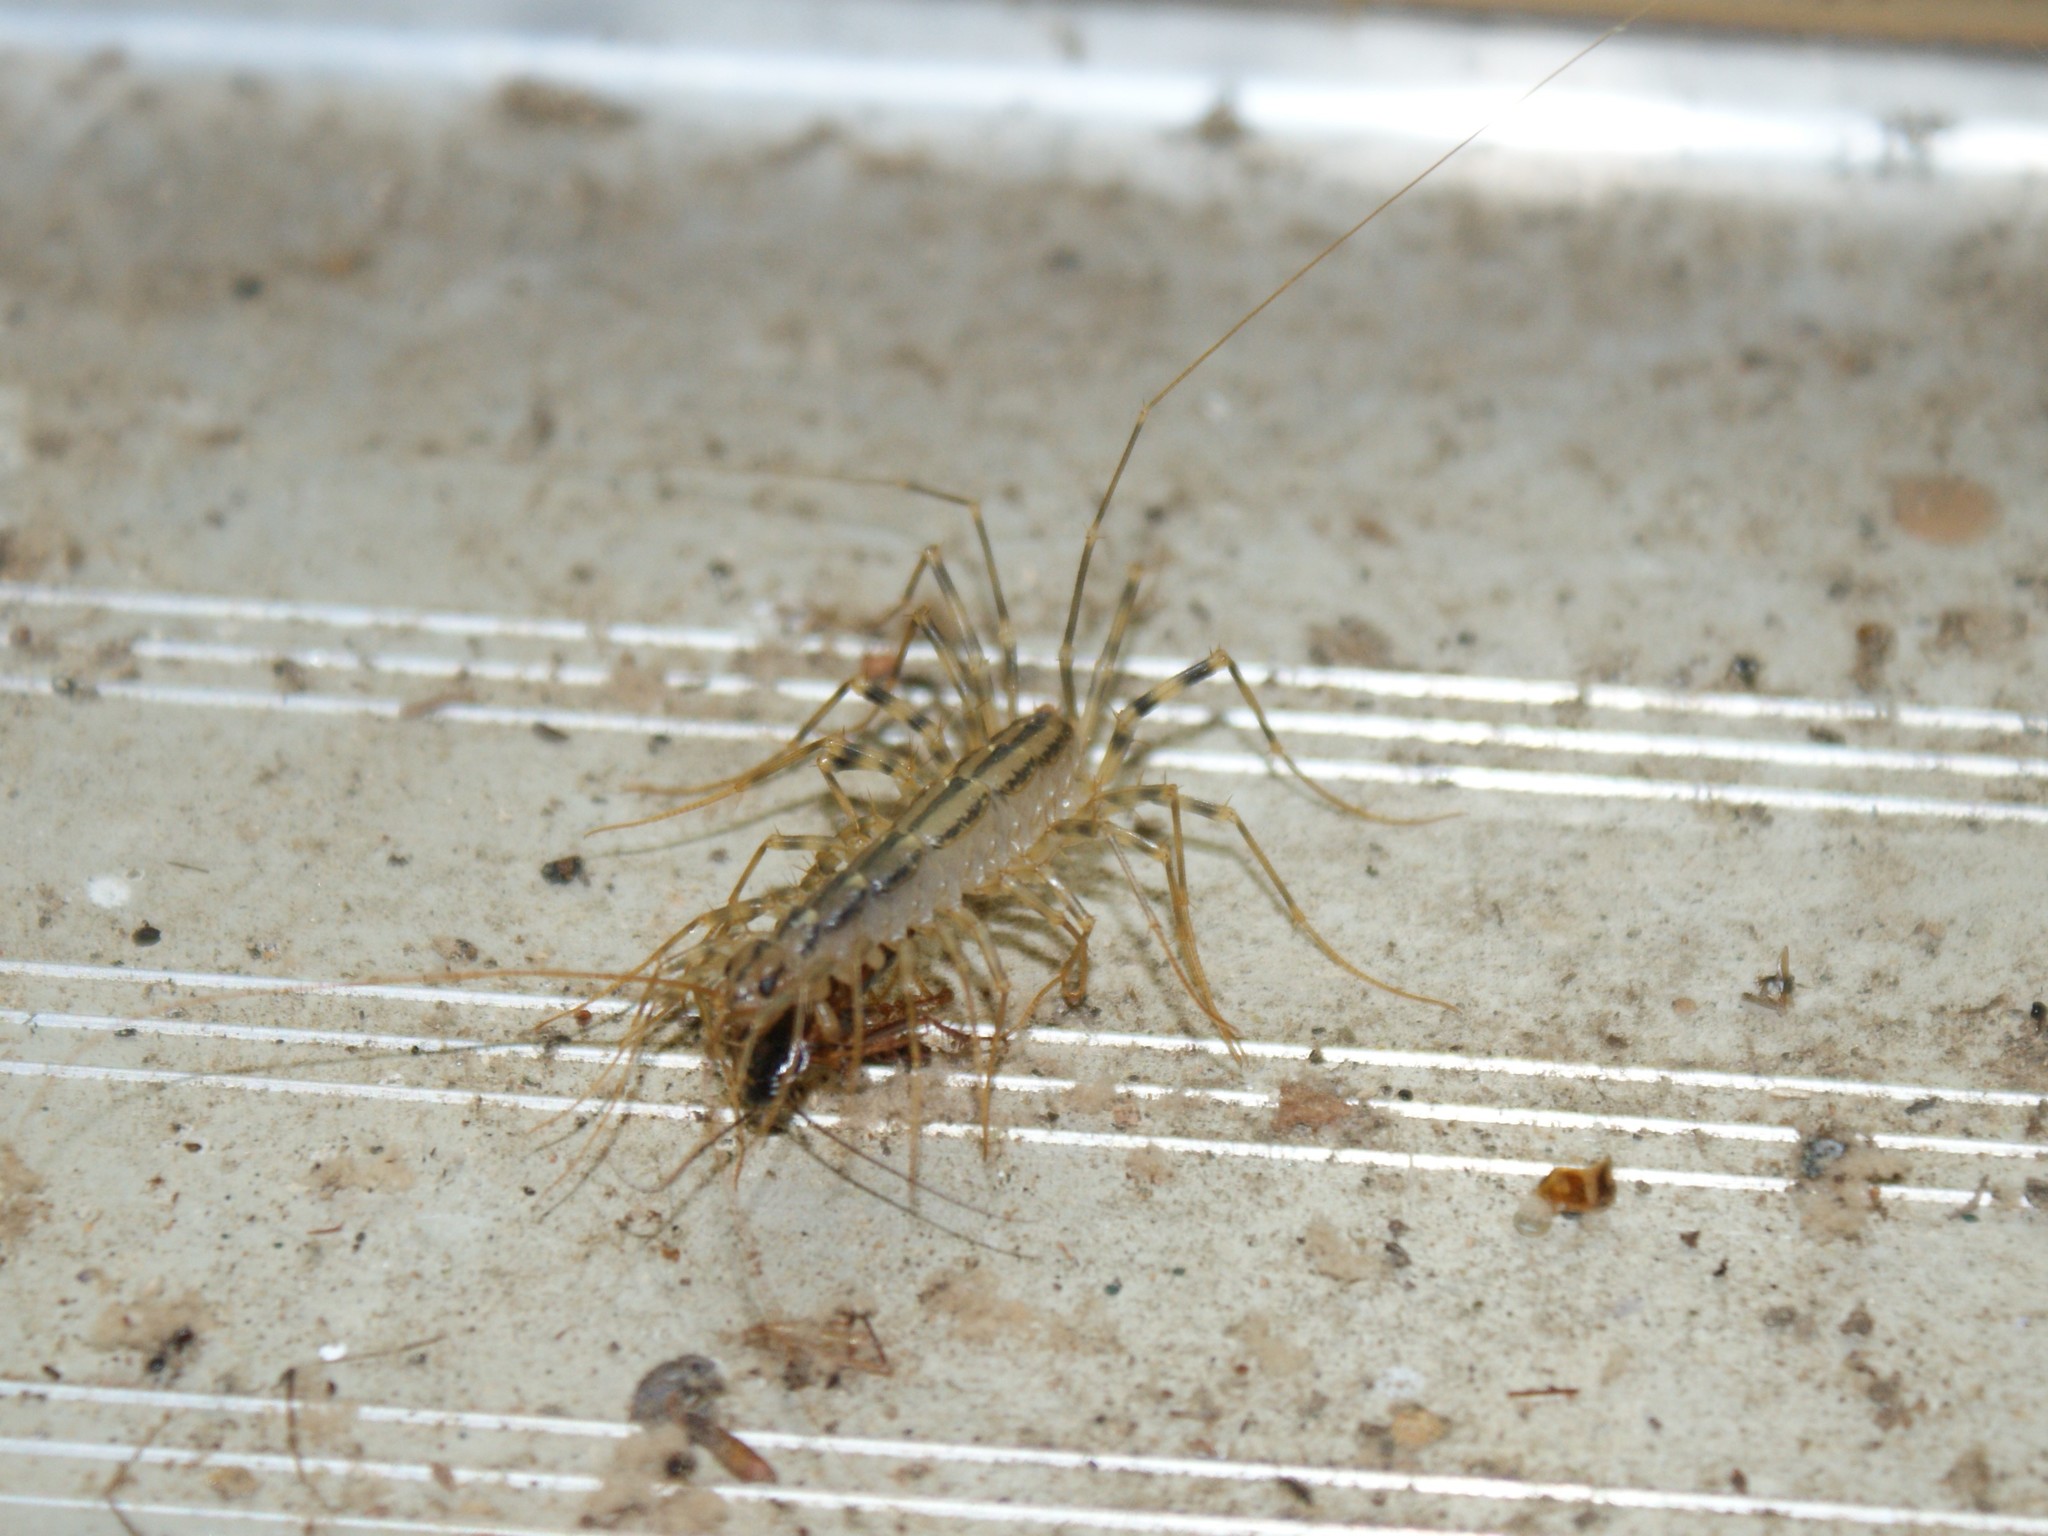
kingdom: Animalia
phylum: Arthropoda
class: Chilopoda
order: Scutigeromorpha
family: Scutigeridae
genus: Scutigera
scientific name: Scutigera coleoptrata
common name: House centipede
